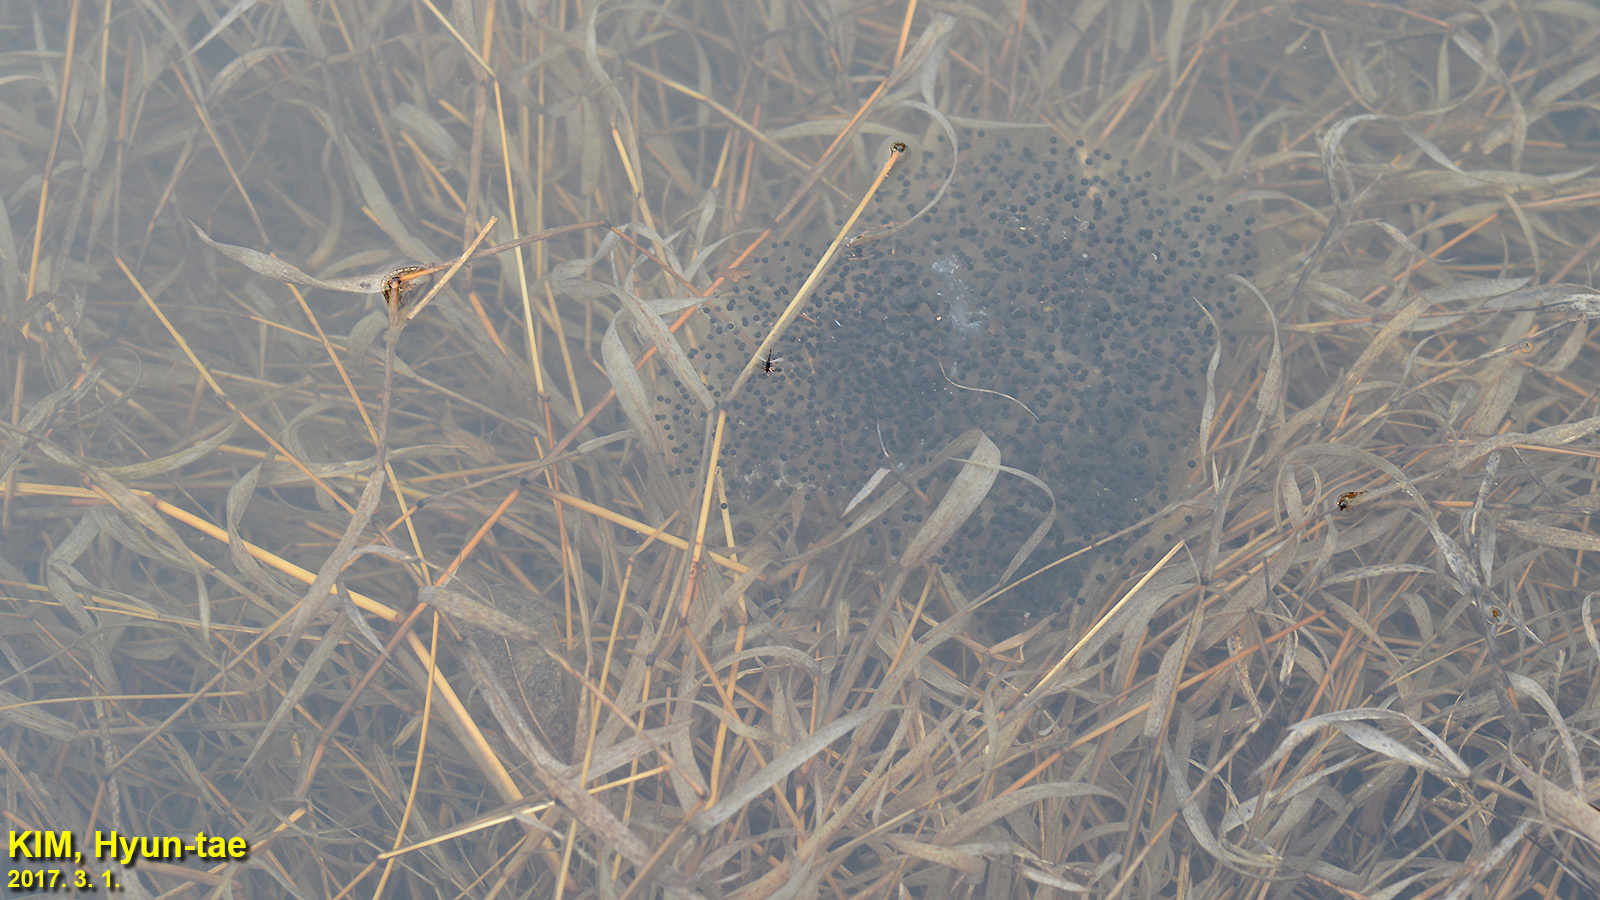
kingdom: Animalia
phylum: Chordata
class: Amphibia
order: Anura
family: Ranidae
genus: Rana
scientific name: Rana uenoi
